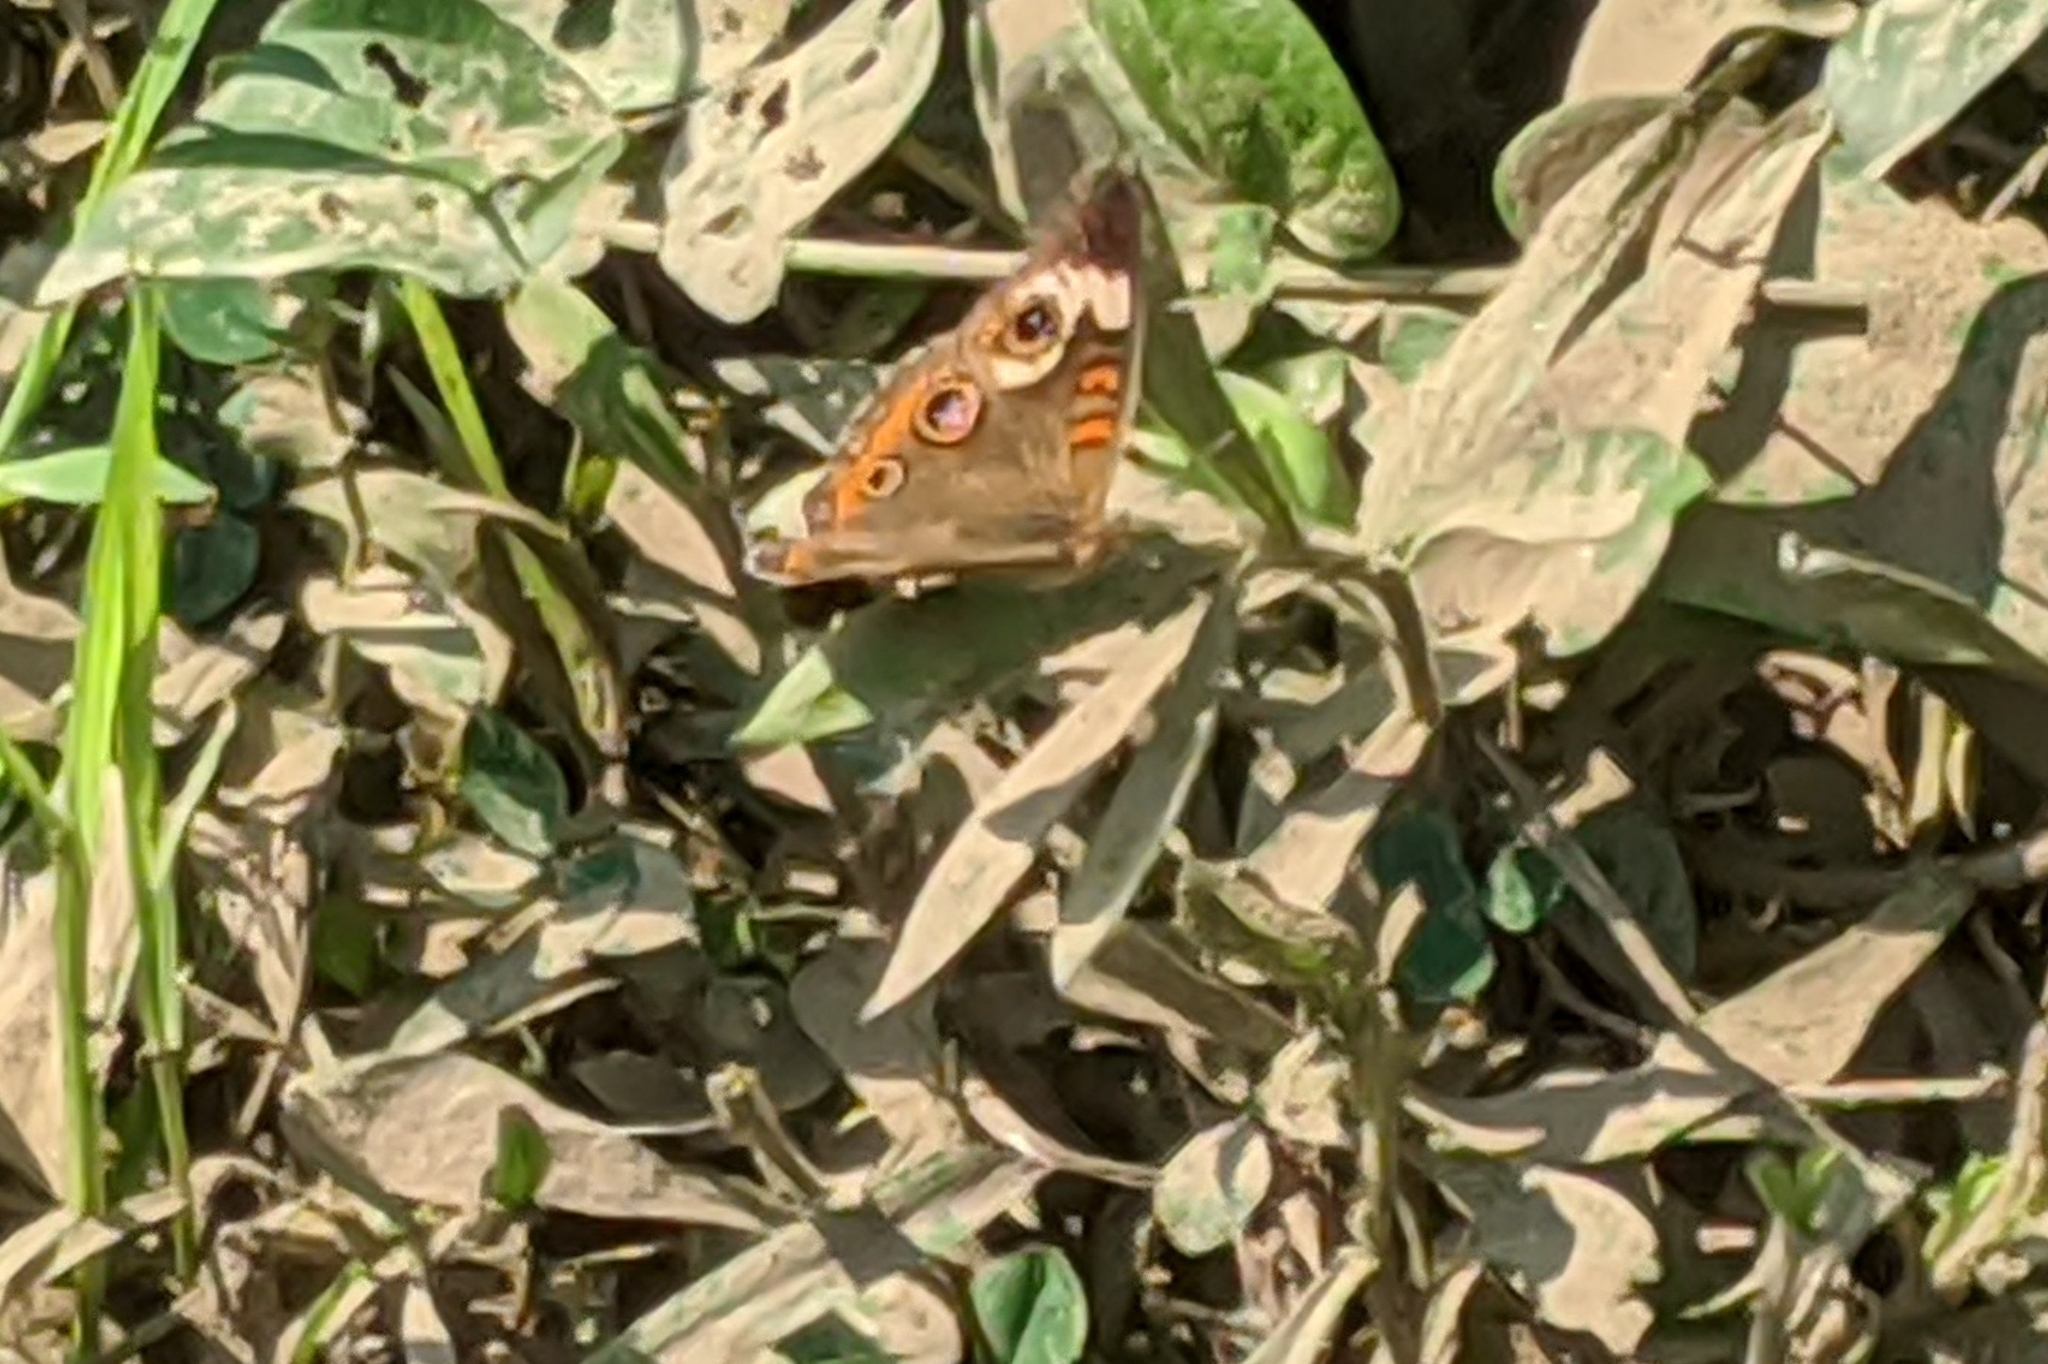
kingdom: Animalia
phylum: Arthropoda
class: Insecta
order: Lepidoptera
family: Nymphalidae
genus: Junonia
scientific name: Junonia coenia
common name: Common buckeye
